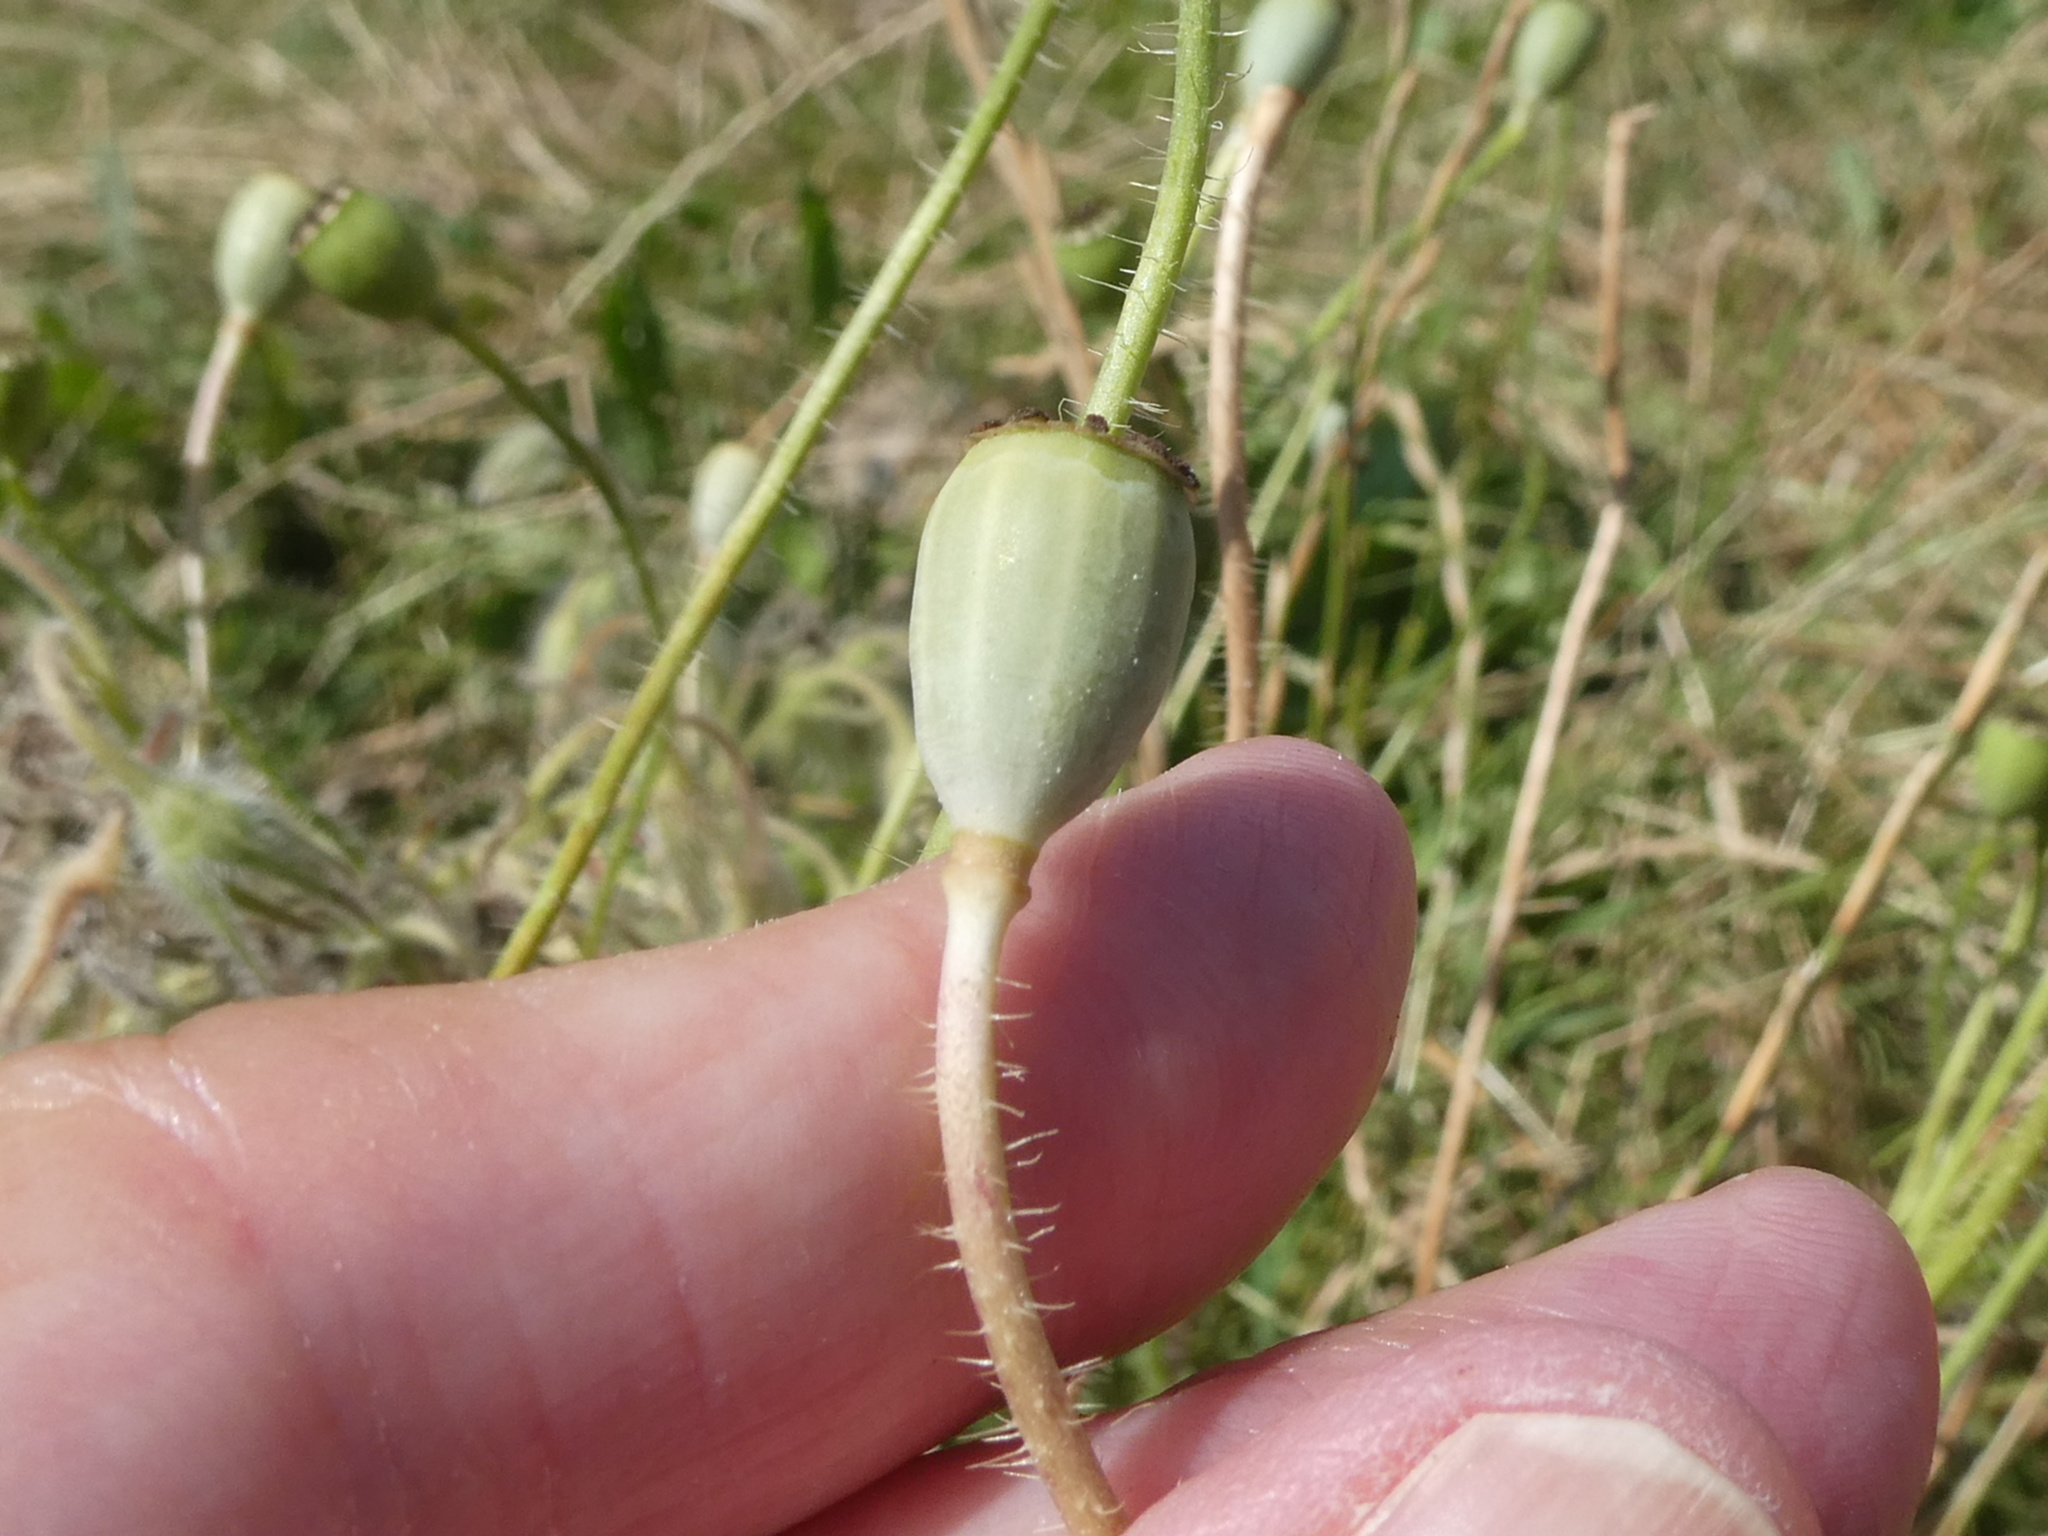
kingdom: Plantae
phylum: Tracheophyta
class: Magnoliopsida
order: Ranunculales
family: Papaveraceae
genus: Papaver
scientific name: Papaver rhoeas
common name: Corn poppy
